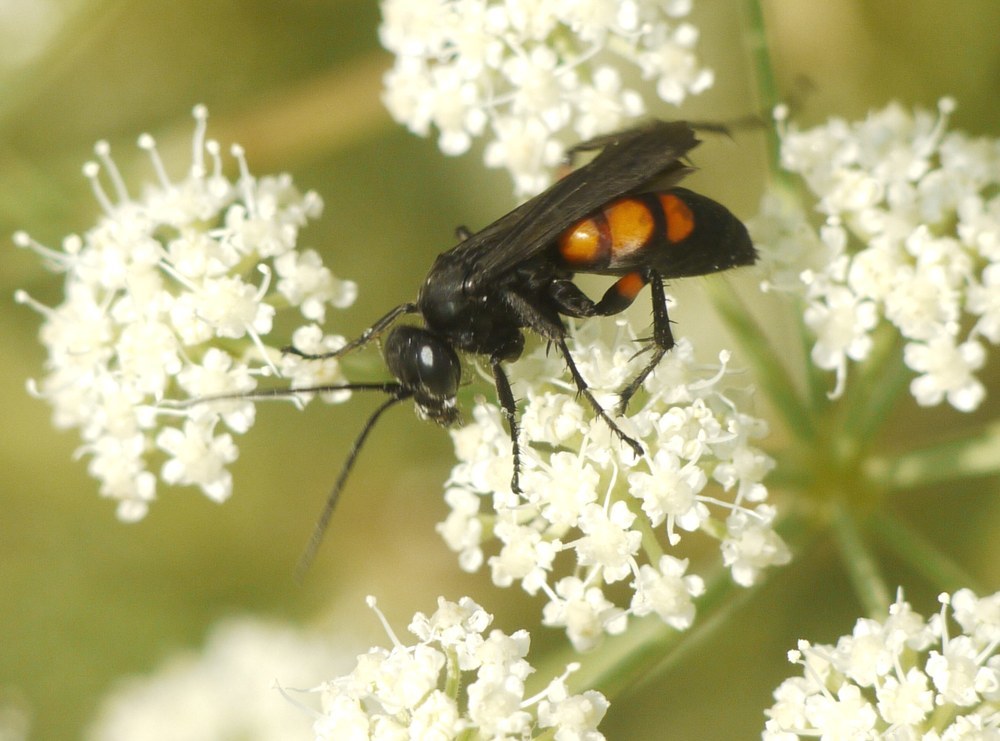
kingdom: Animalia
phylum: Arthropoda
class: Insecta
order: Hymenoptera
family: Pompilidae
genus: Anoplius
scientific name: Anoplius viaticus
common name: Black banded spider wasp
